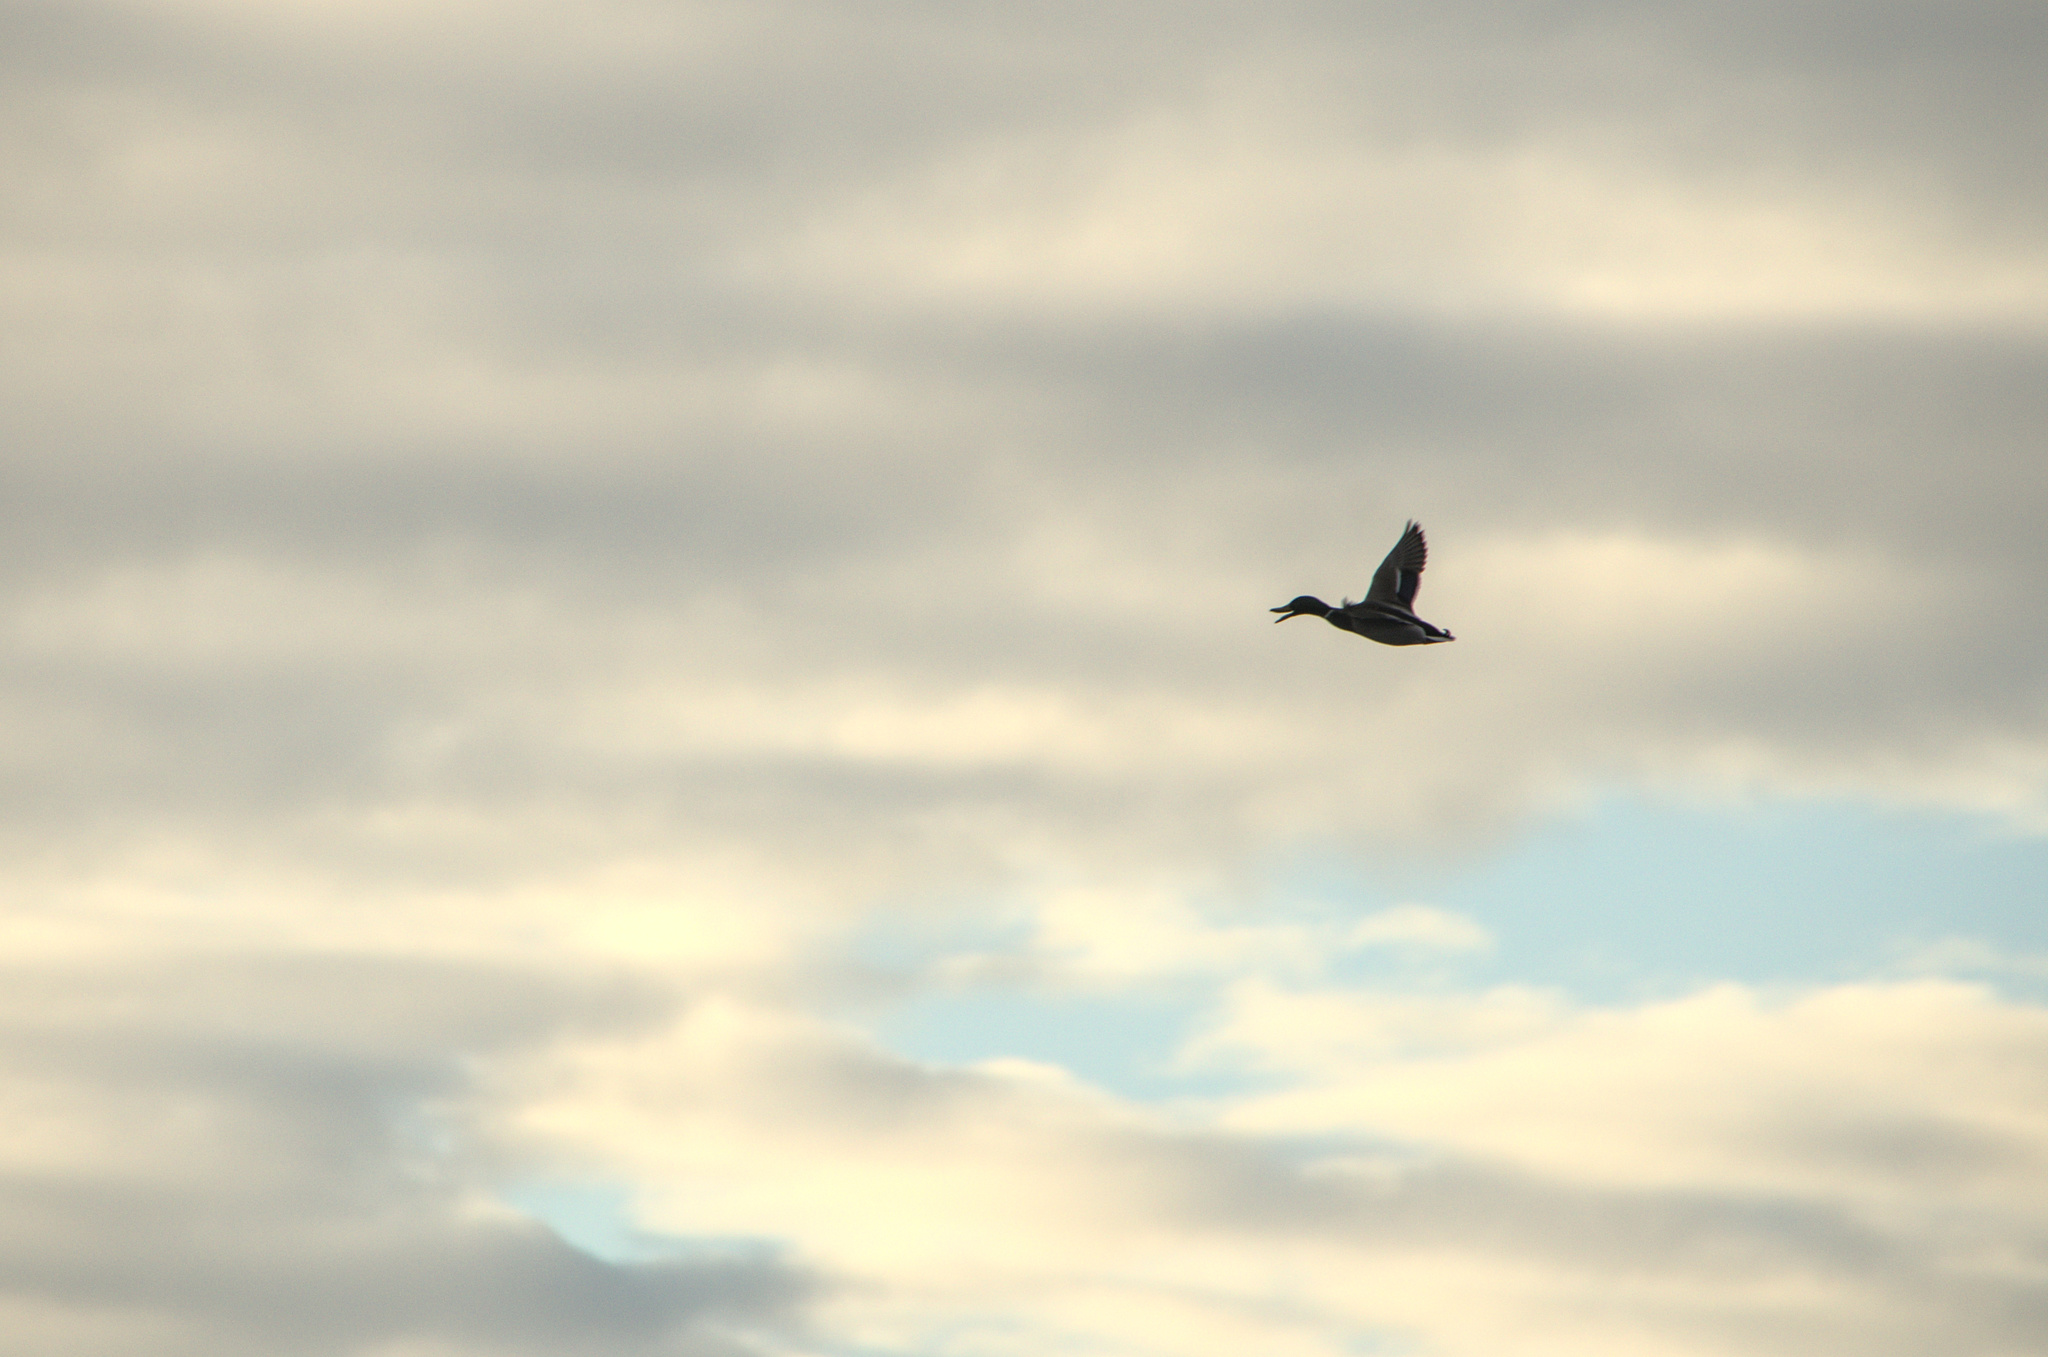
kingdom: Animalia
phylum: Chordata
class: Aves
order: Anseriformes
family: Anatidae
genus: Anas
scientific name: Anas platyrhynchos
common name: Mallard
